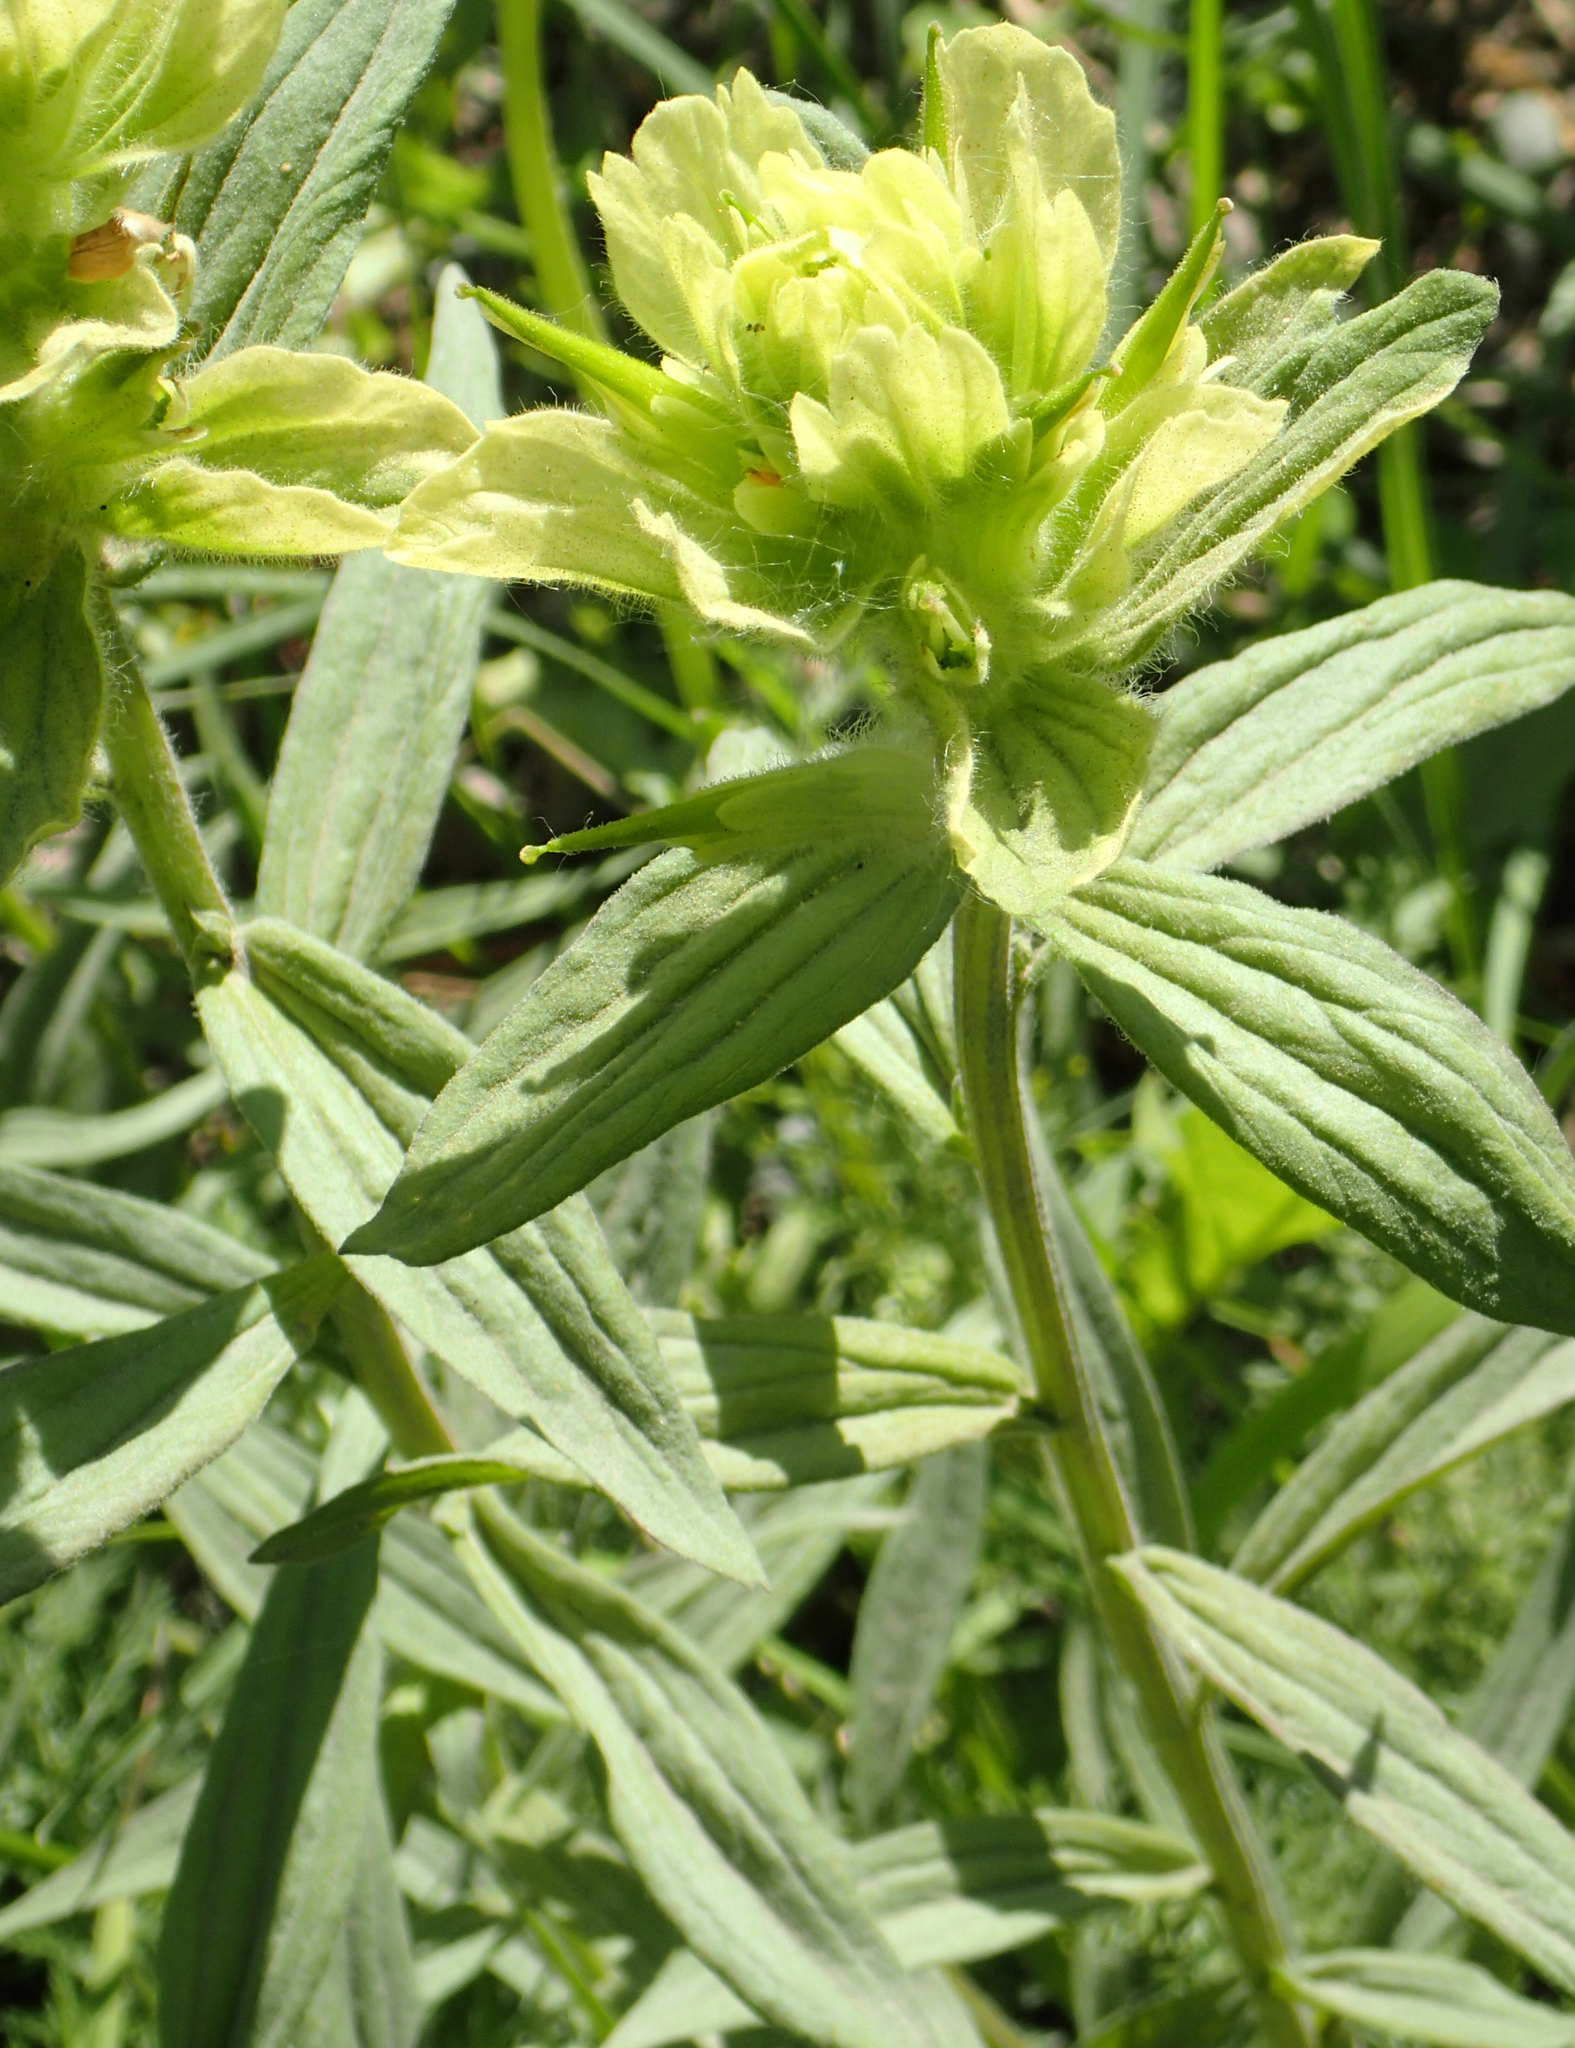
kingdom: Plantae
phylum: Tracheophyta
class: Magnoliopsida
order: Lamiales
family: Orobanchaceae
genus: Castilleja
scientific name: Castilleja unalaschcensis
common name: Unalaska paintbrush
